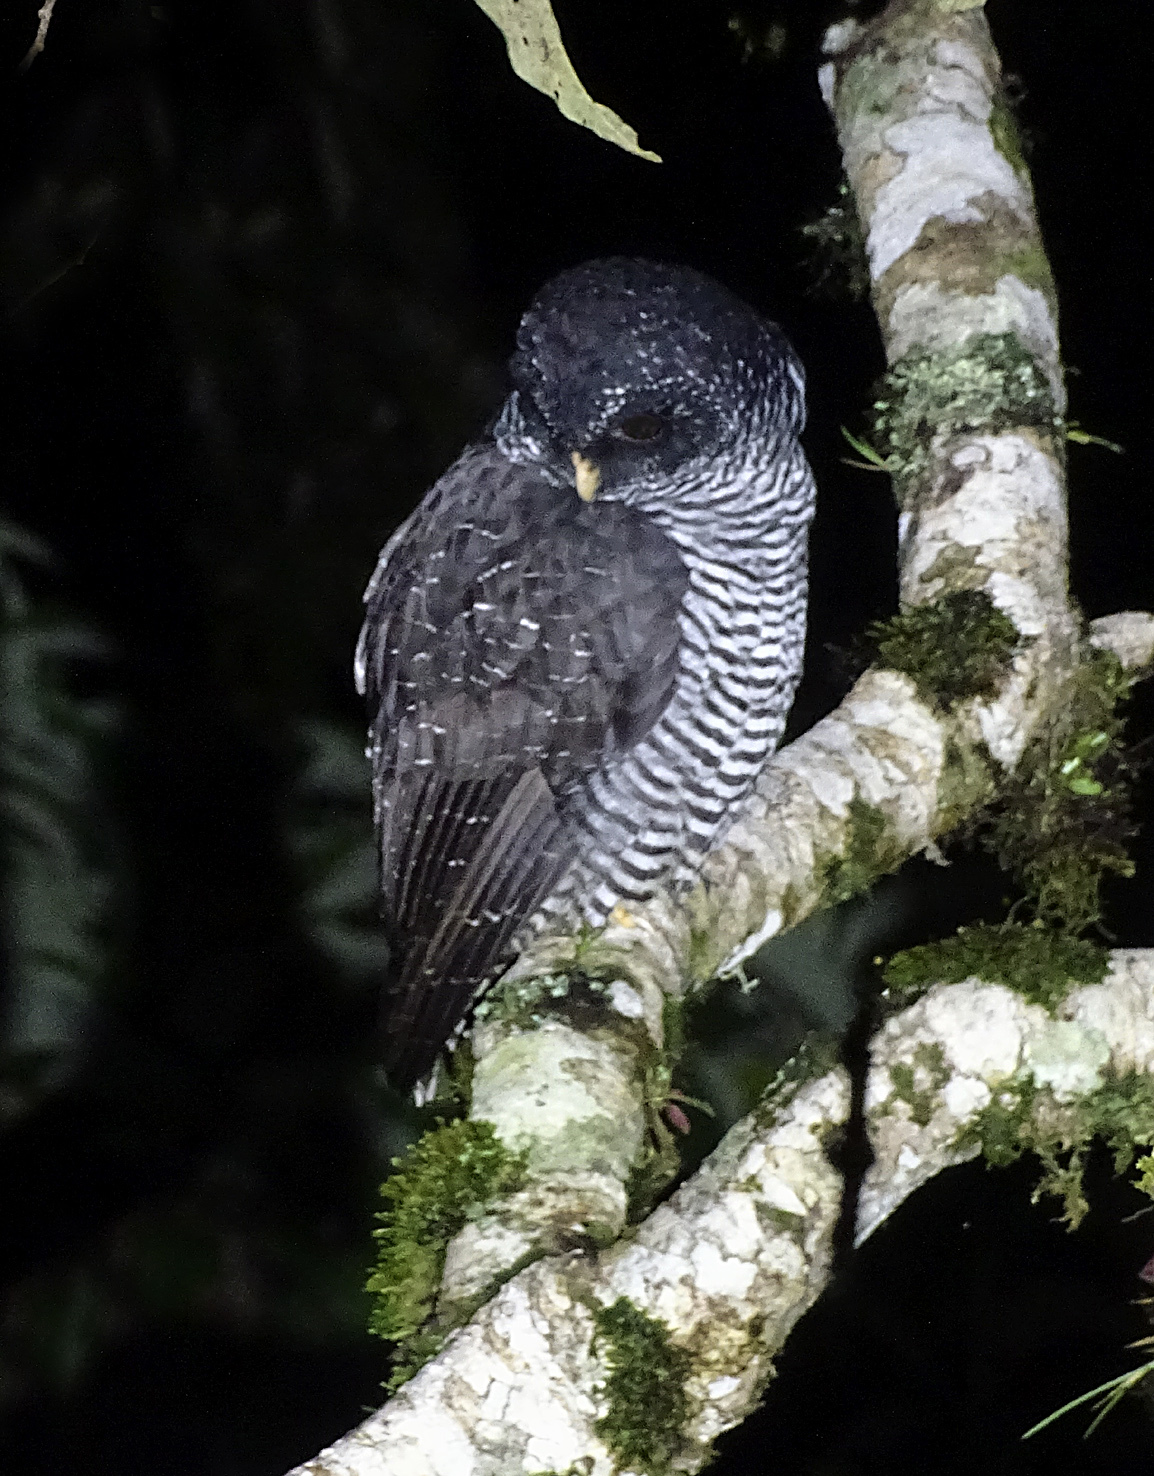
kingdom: Animalia
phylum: Chordata
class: Aves
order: Strigiformes
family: Strigidae
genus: Strix
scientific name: Strix huhula
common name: Black-banded owl
